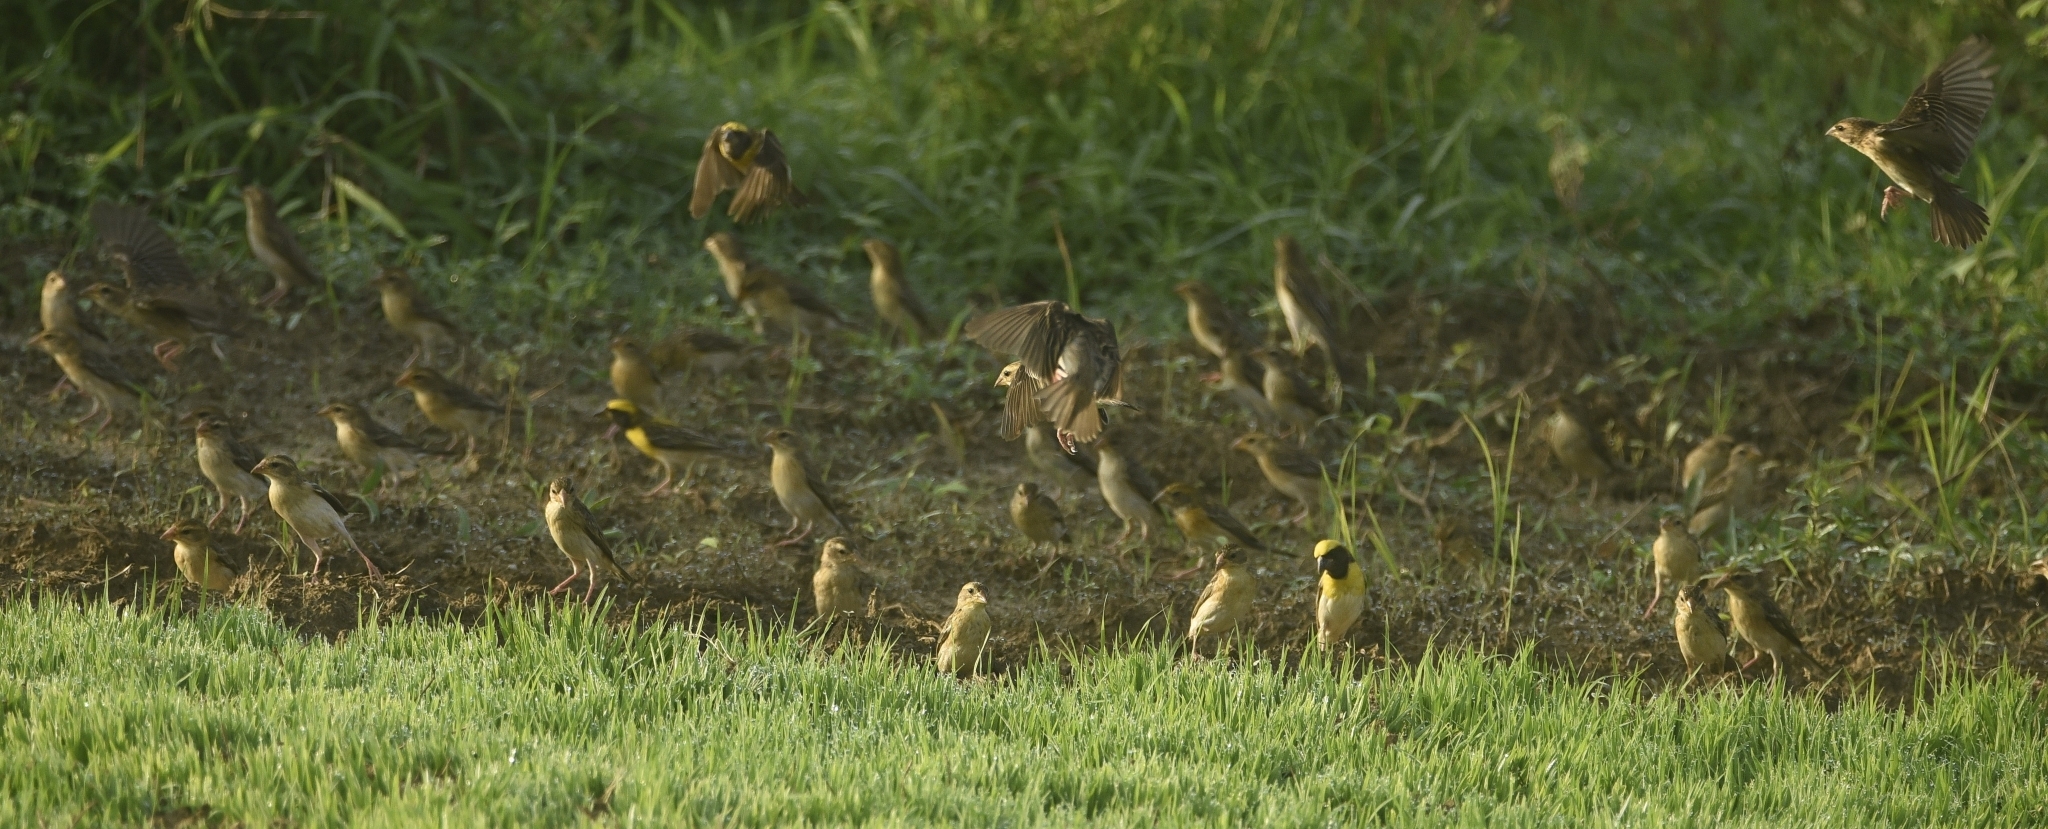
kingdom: Animalia
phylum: Chordata
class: Aves
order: Passeriformes
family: Ploceidae
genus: Ploceus
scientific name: Ploceus philippinus
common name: Baya weaver
